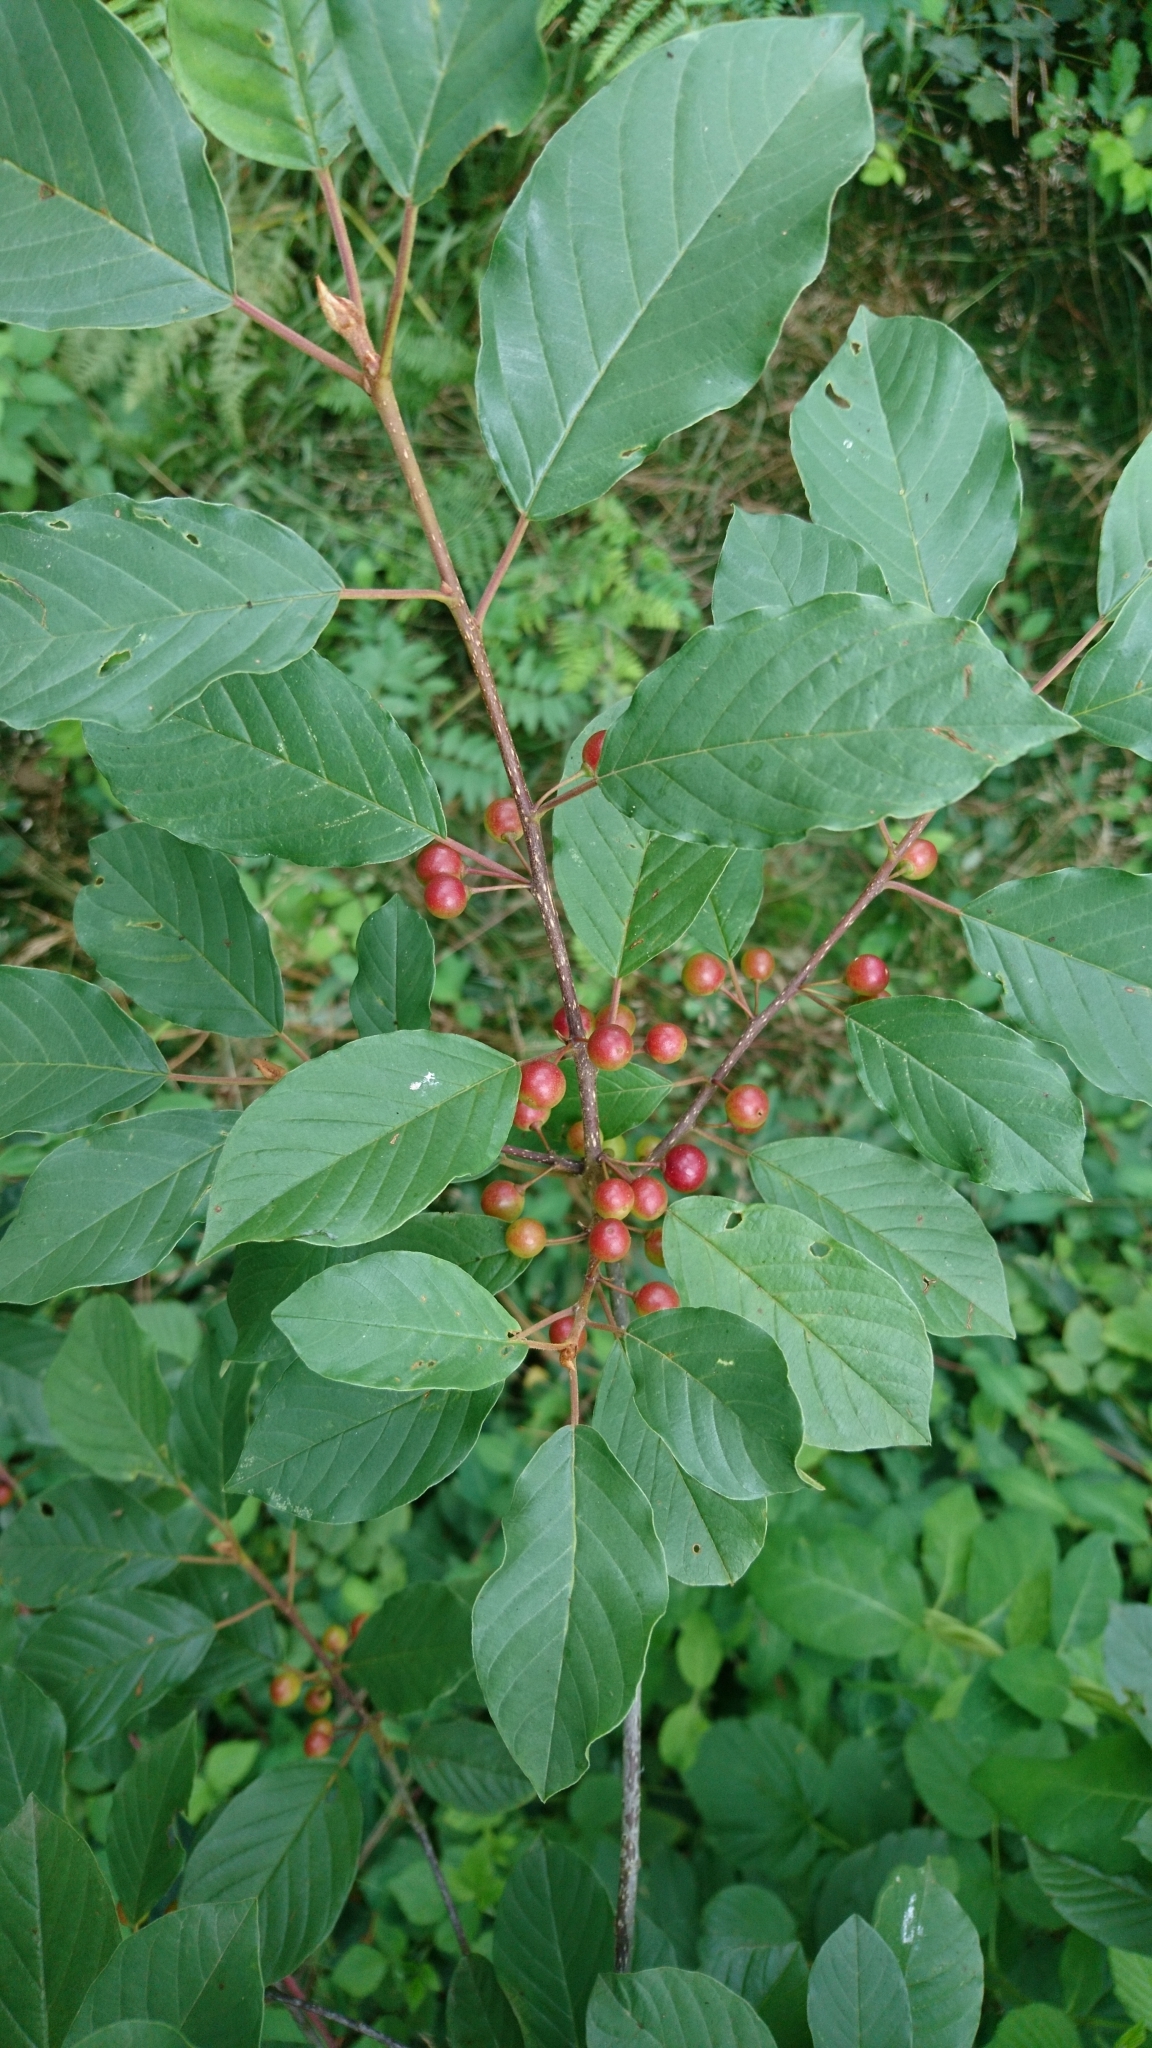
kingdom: Plantae
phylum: Tracheophyta
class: Magnoliopsida
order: Rosales
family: Rhamnaceae
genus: Frangula
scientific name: Frangula alnus
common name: Alder buckthorn
